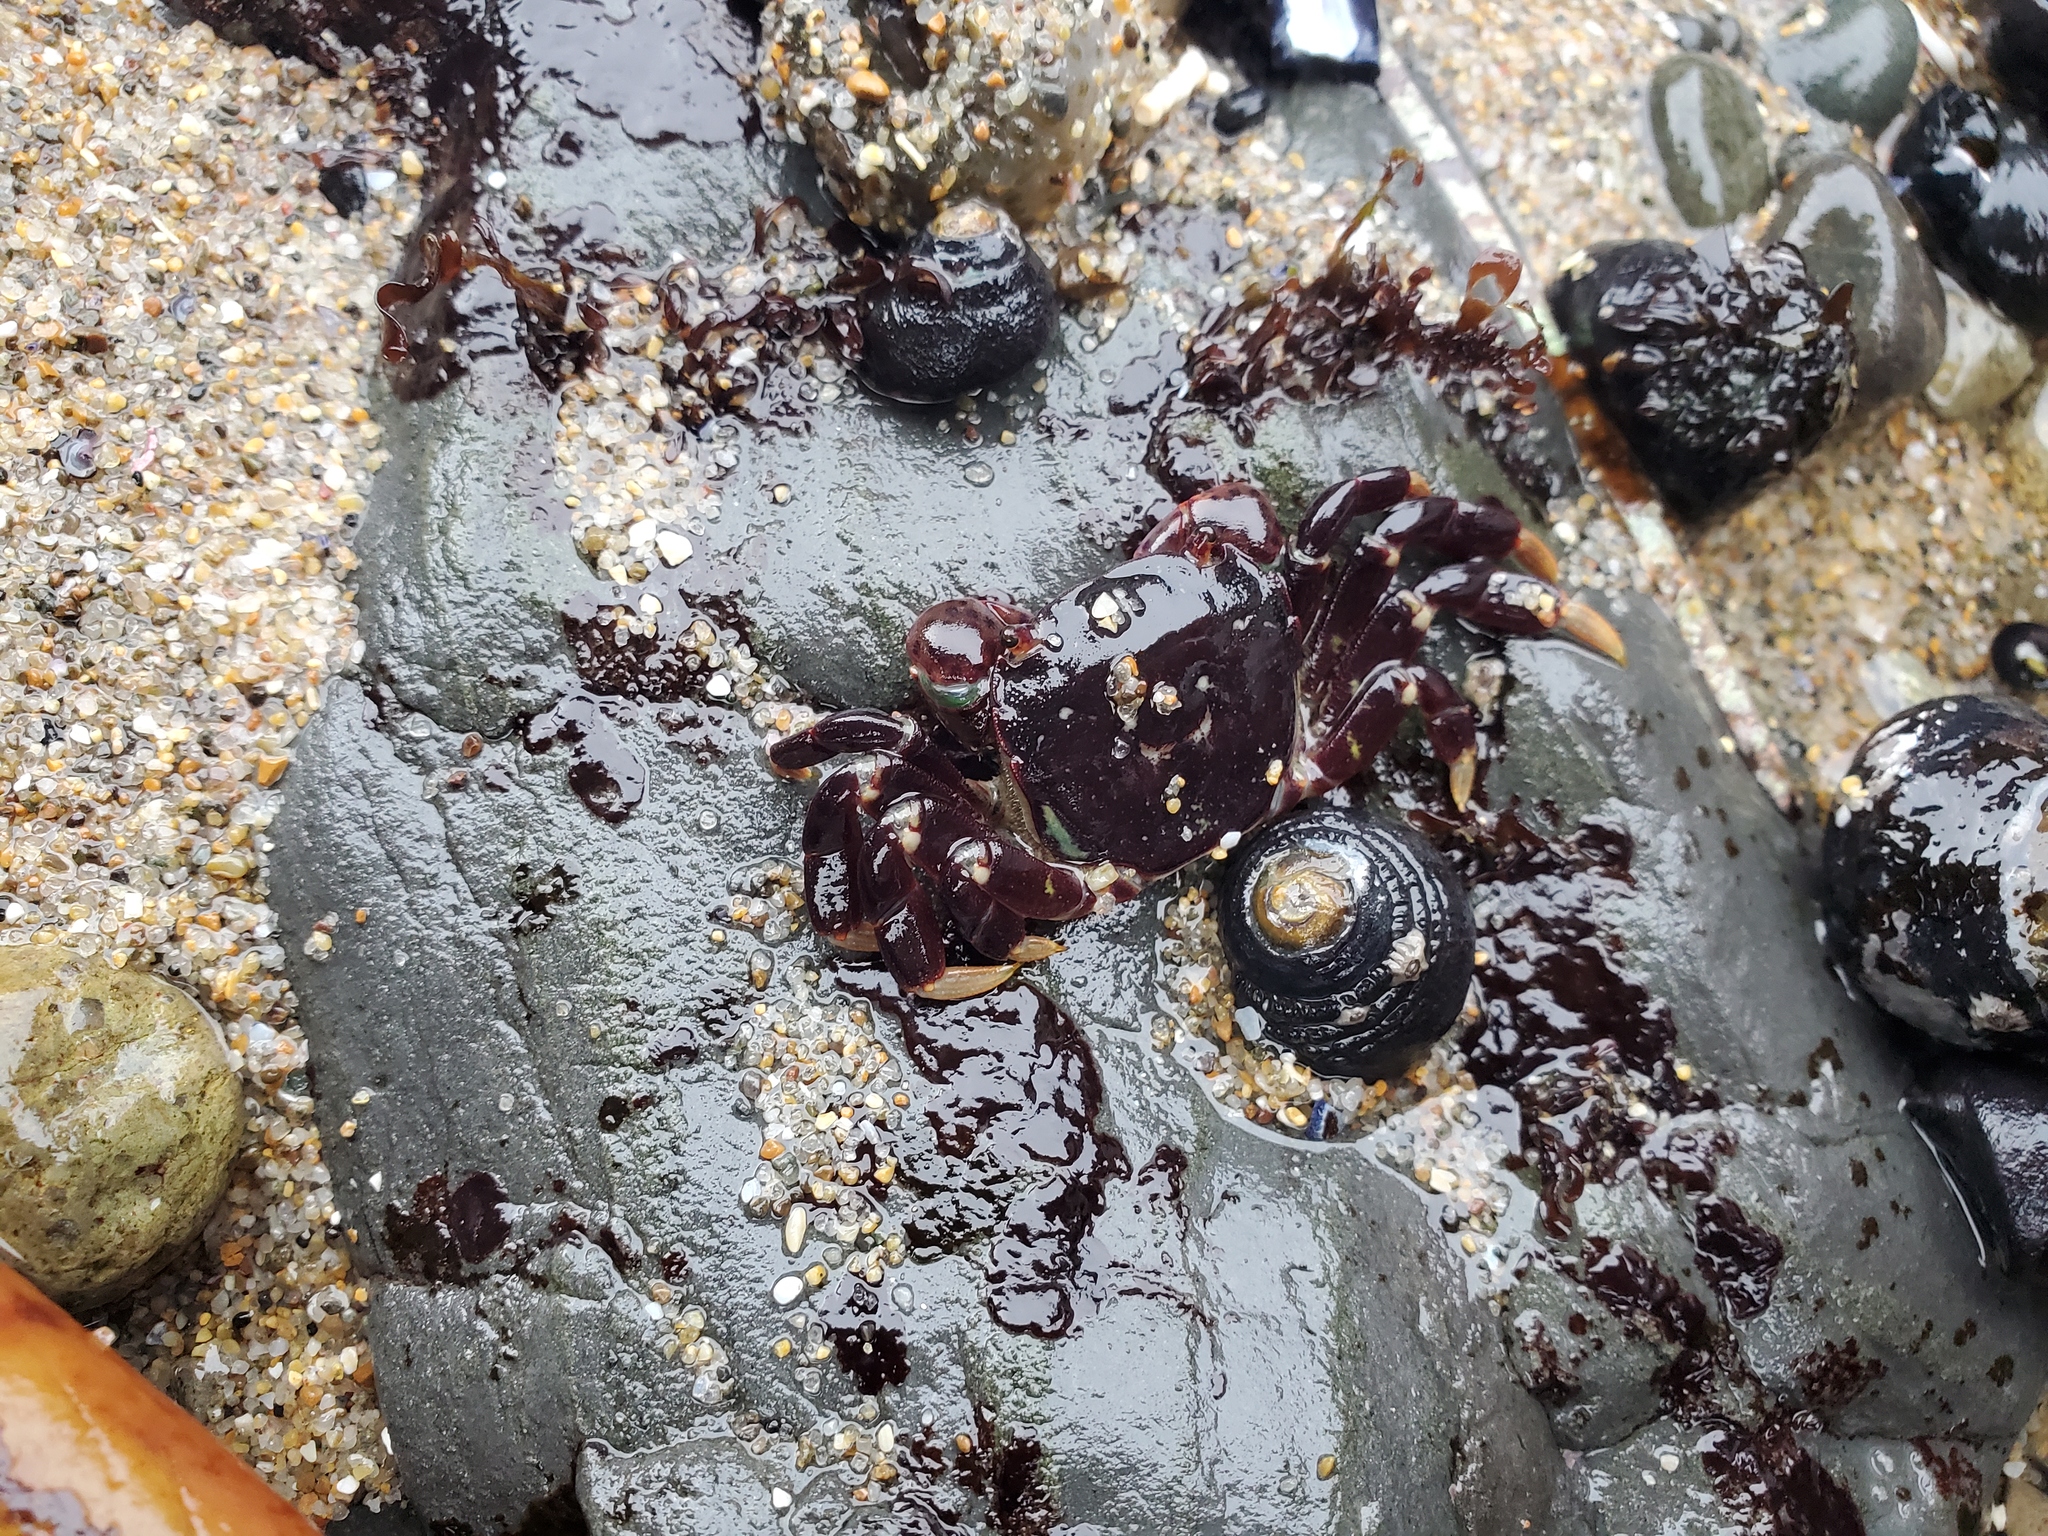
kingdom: Animalia
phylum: Arthropoda
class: Malacostraca
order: Decapoda
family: Varunidae
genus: Hemigrapsus
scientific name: Hemigrapsus nudus
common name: Purple shore crab
